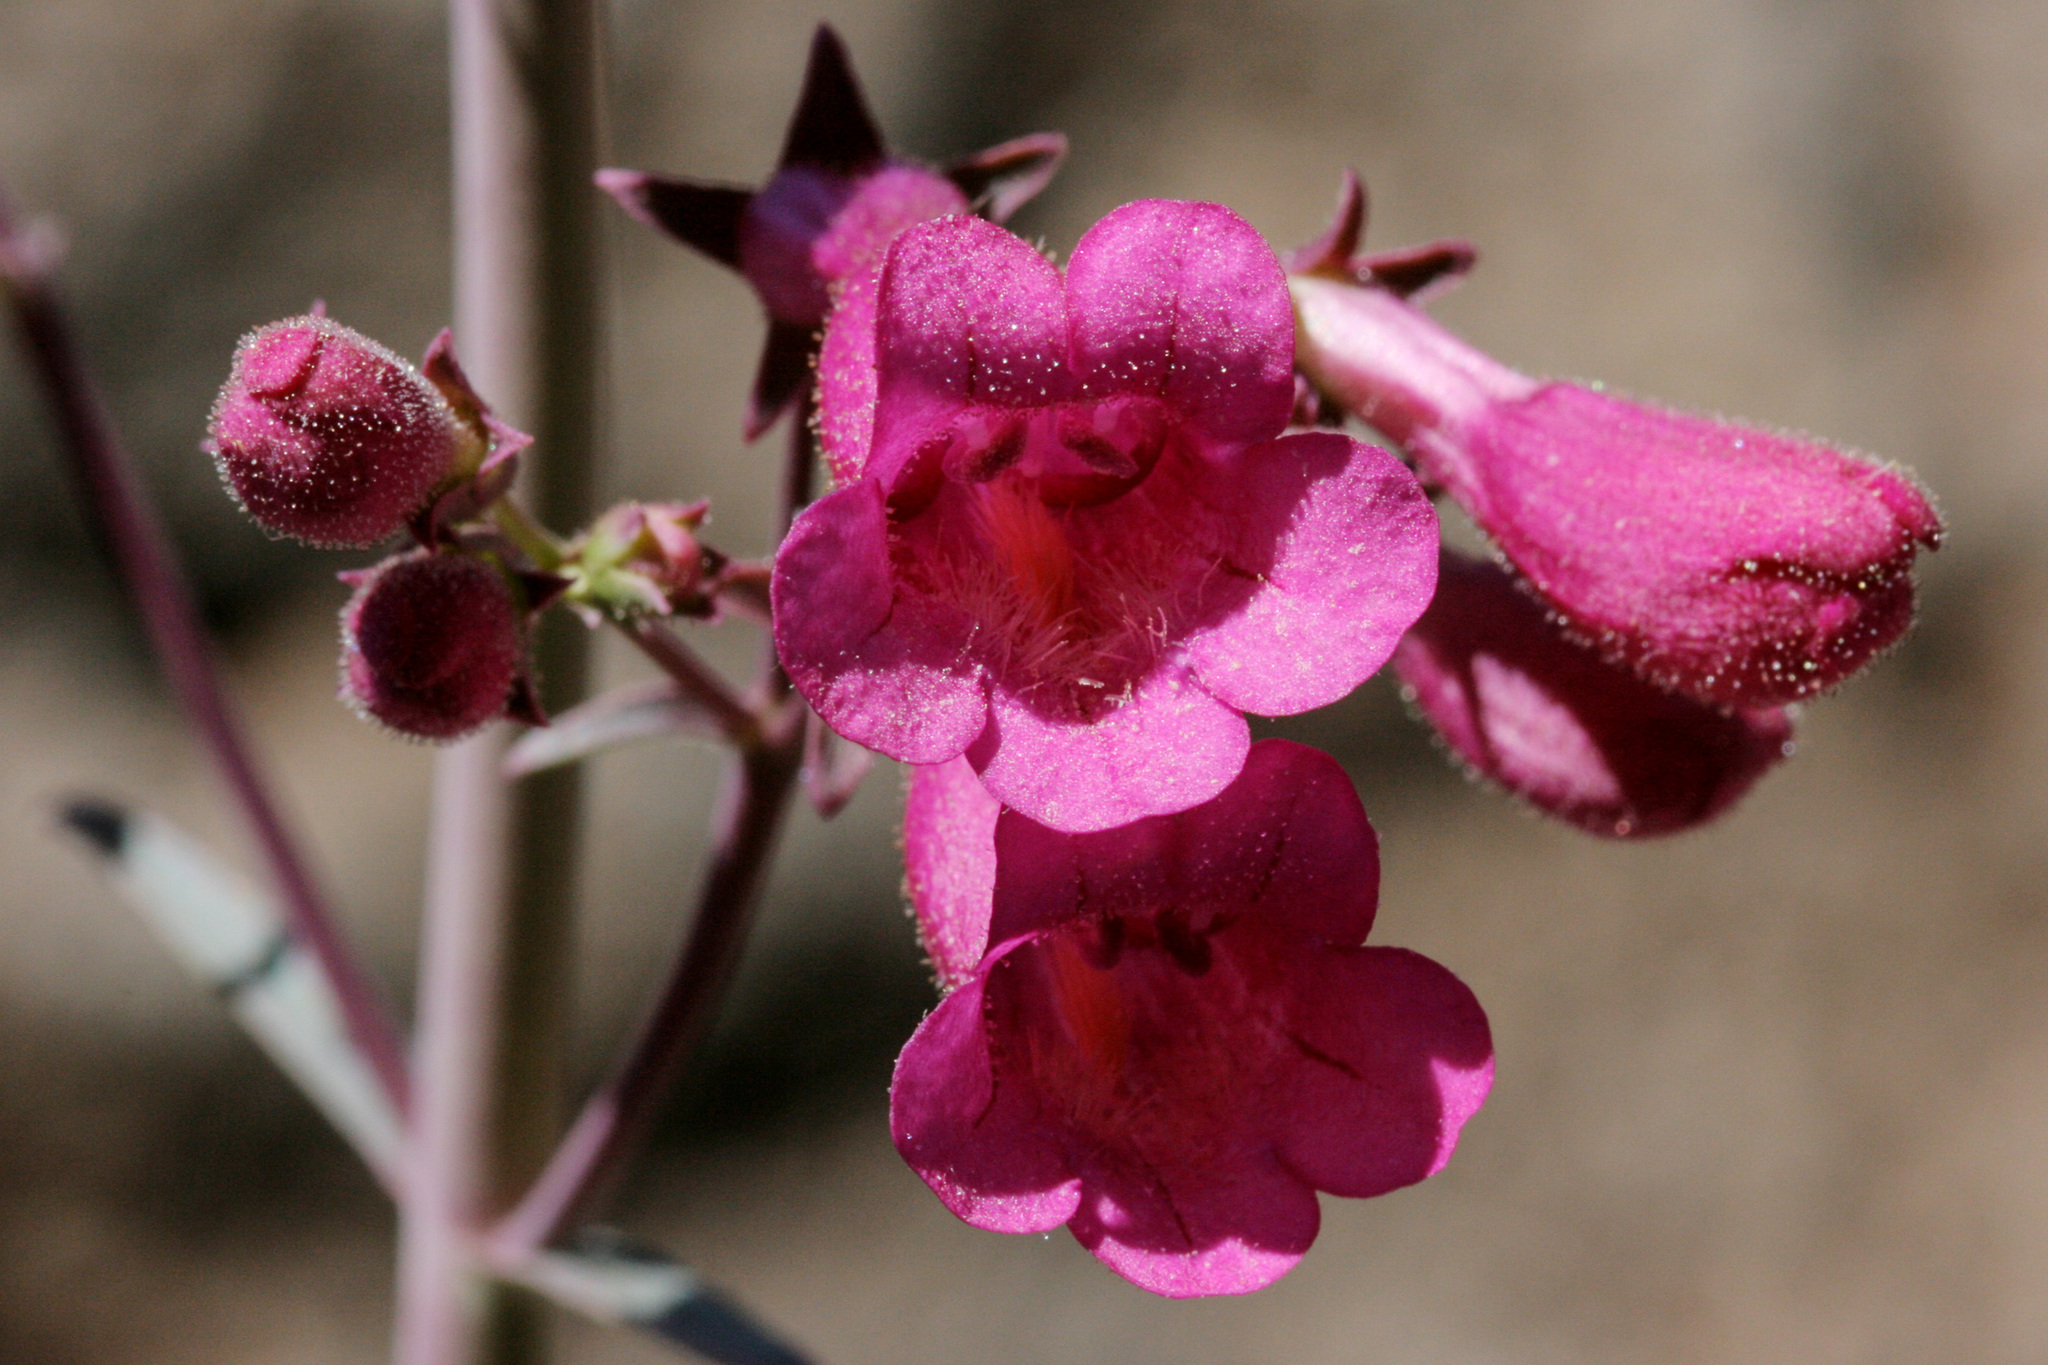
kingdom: Plantae
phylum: Tracheophyta
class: Magnoliopsida
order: Lamiales
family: Plantaginaceae
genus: Penstemon
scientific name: Penstemon parryi
